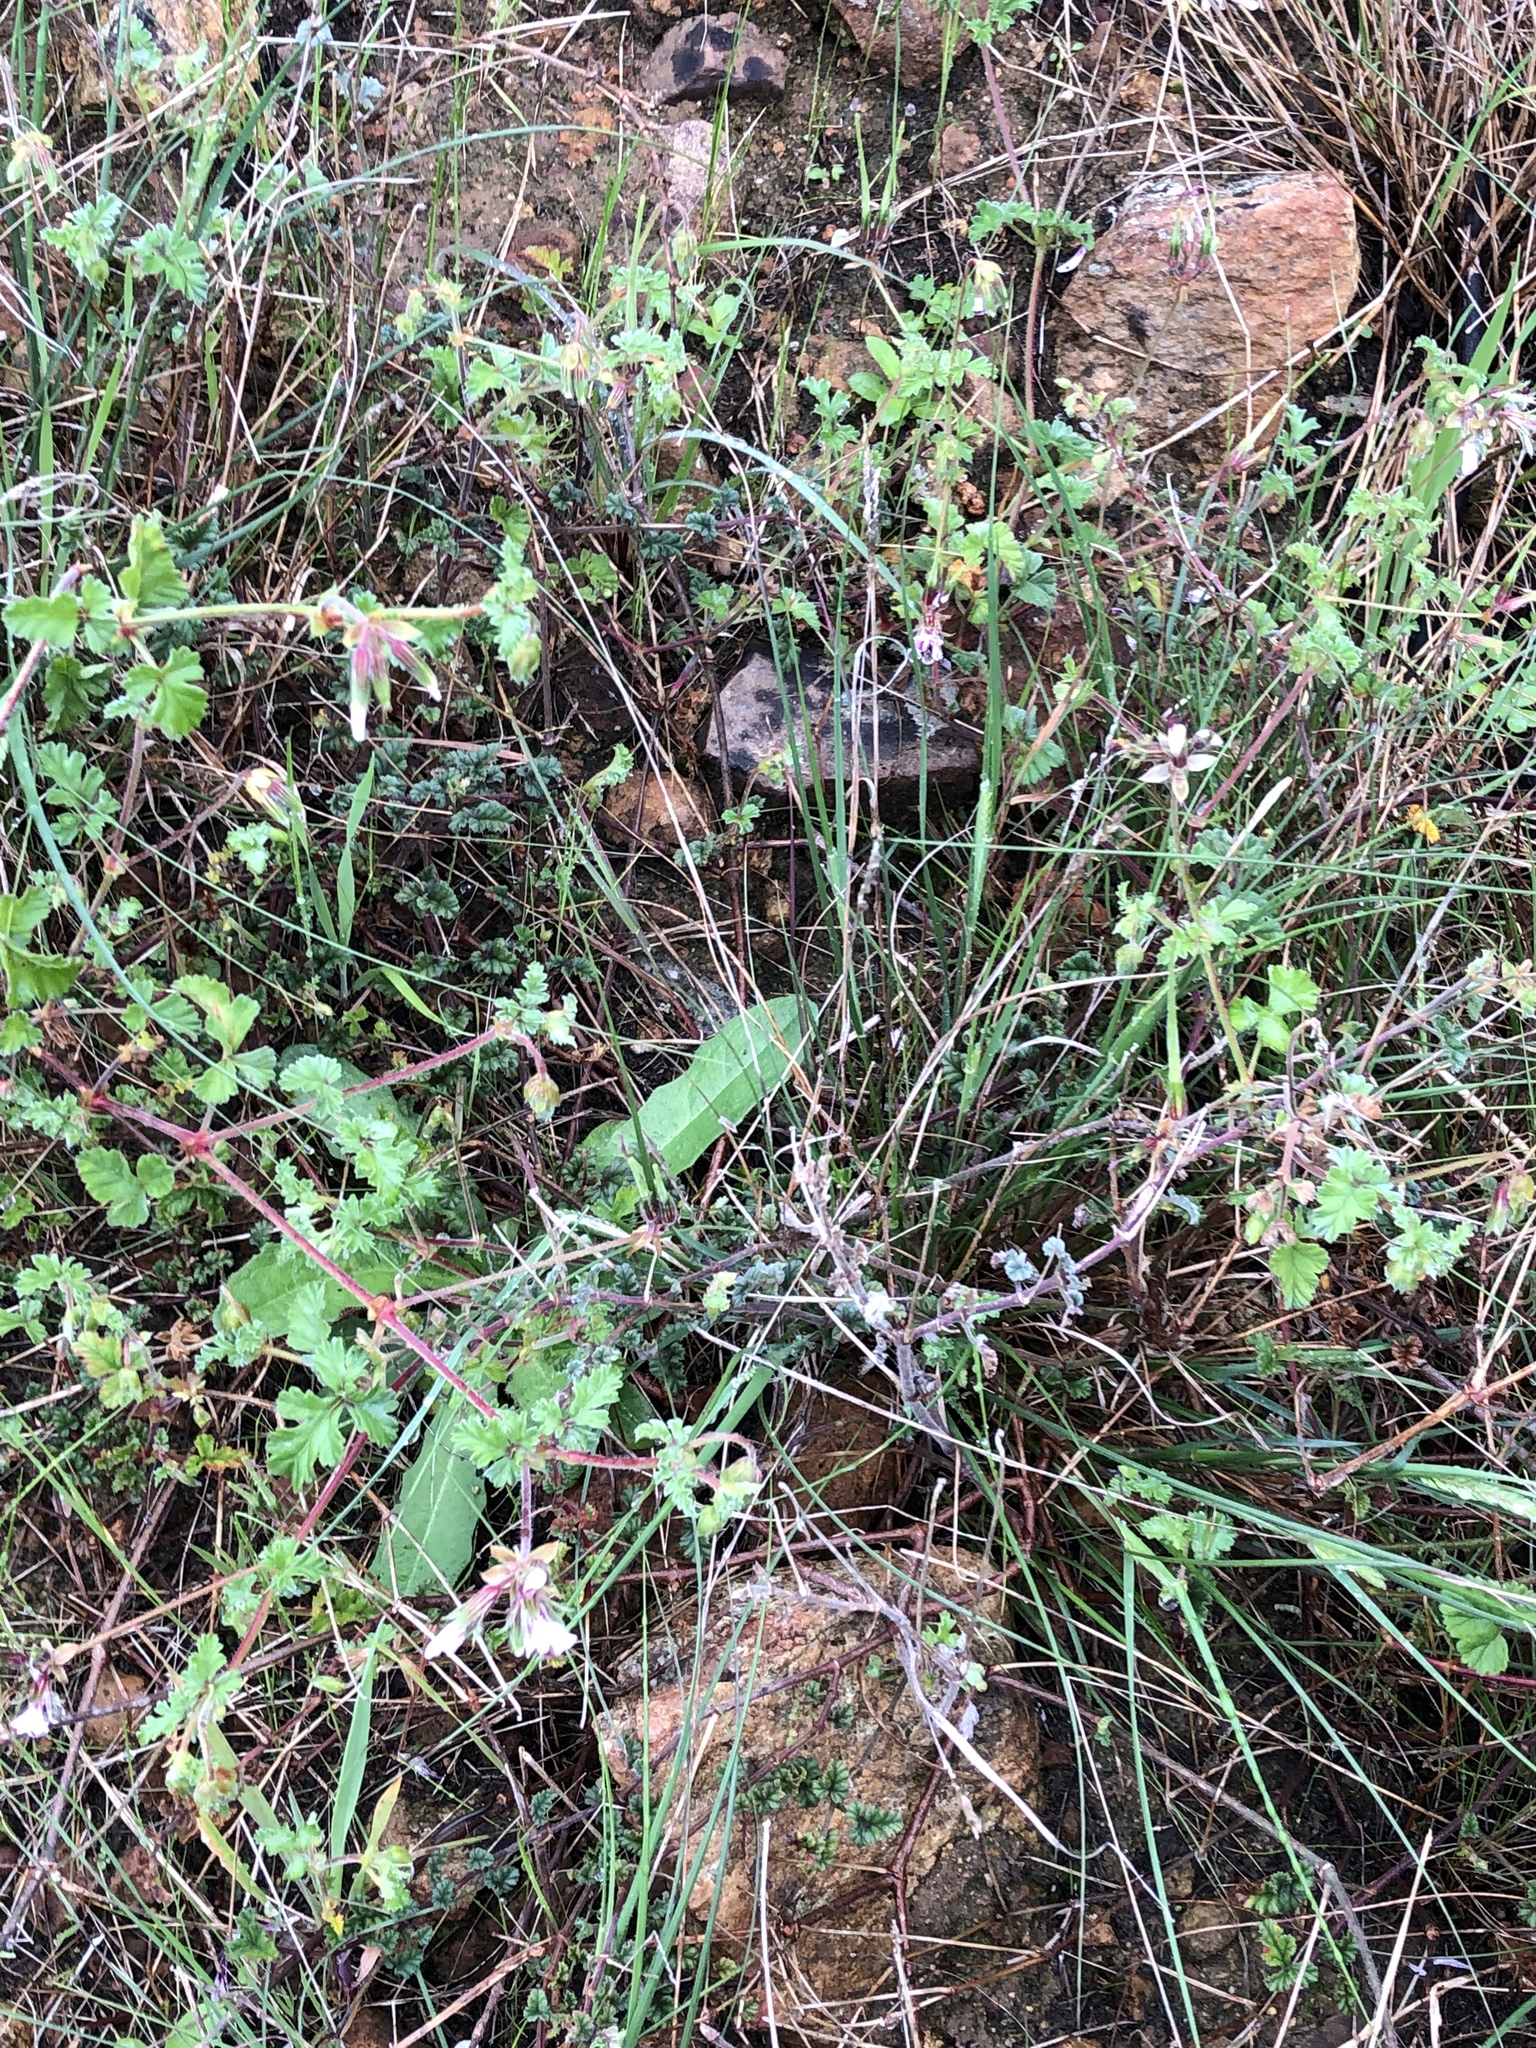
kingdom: Plantae
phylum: Tracheophyta
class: Magnoliopsida
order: Geraniales
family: Geraniaceae
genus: Pelargonium
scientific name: Pelargonium candicans
